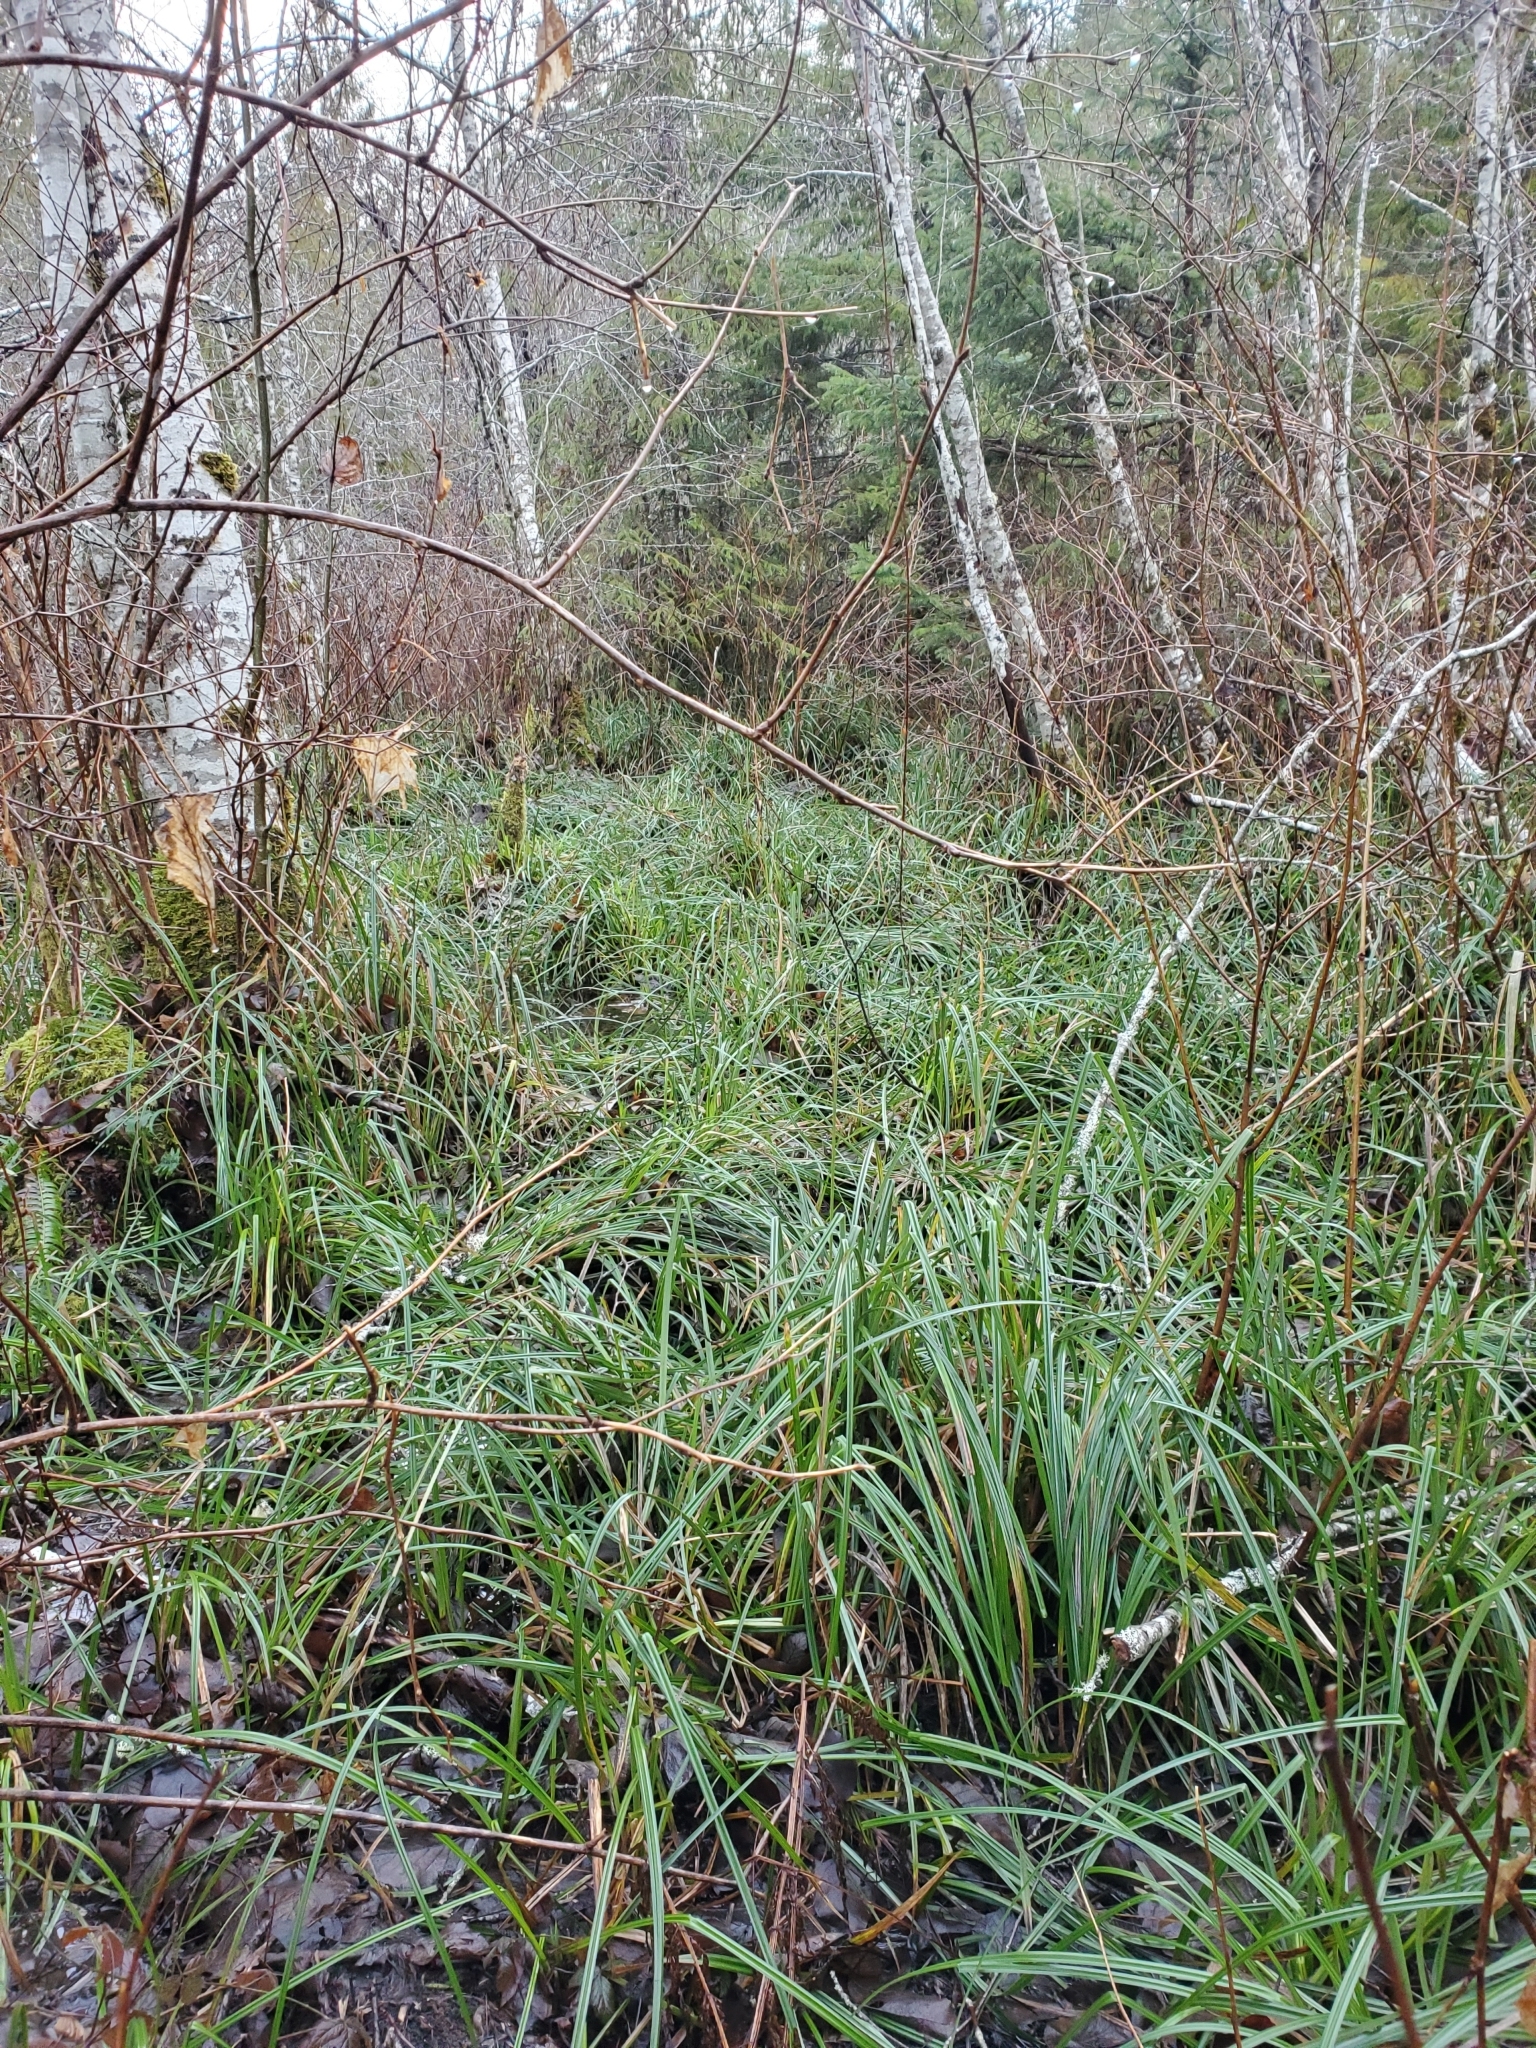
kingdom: Plantae
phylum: Tracheophyta
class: Liliopsida
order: Poales
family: Cyperaceae
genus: Carex
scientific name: Carex obnupta
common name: Slough sedge
